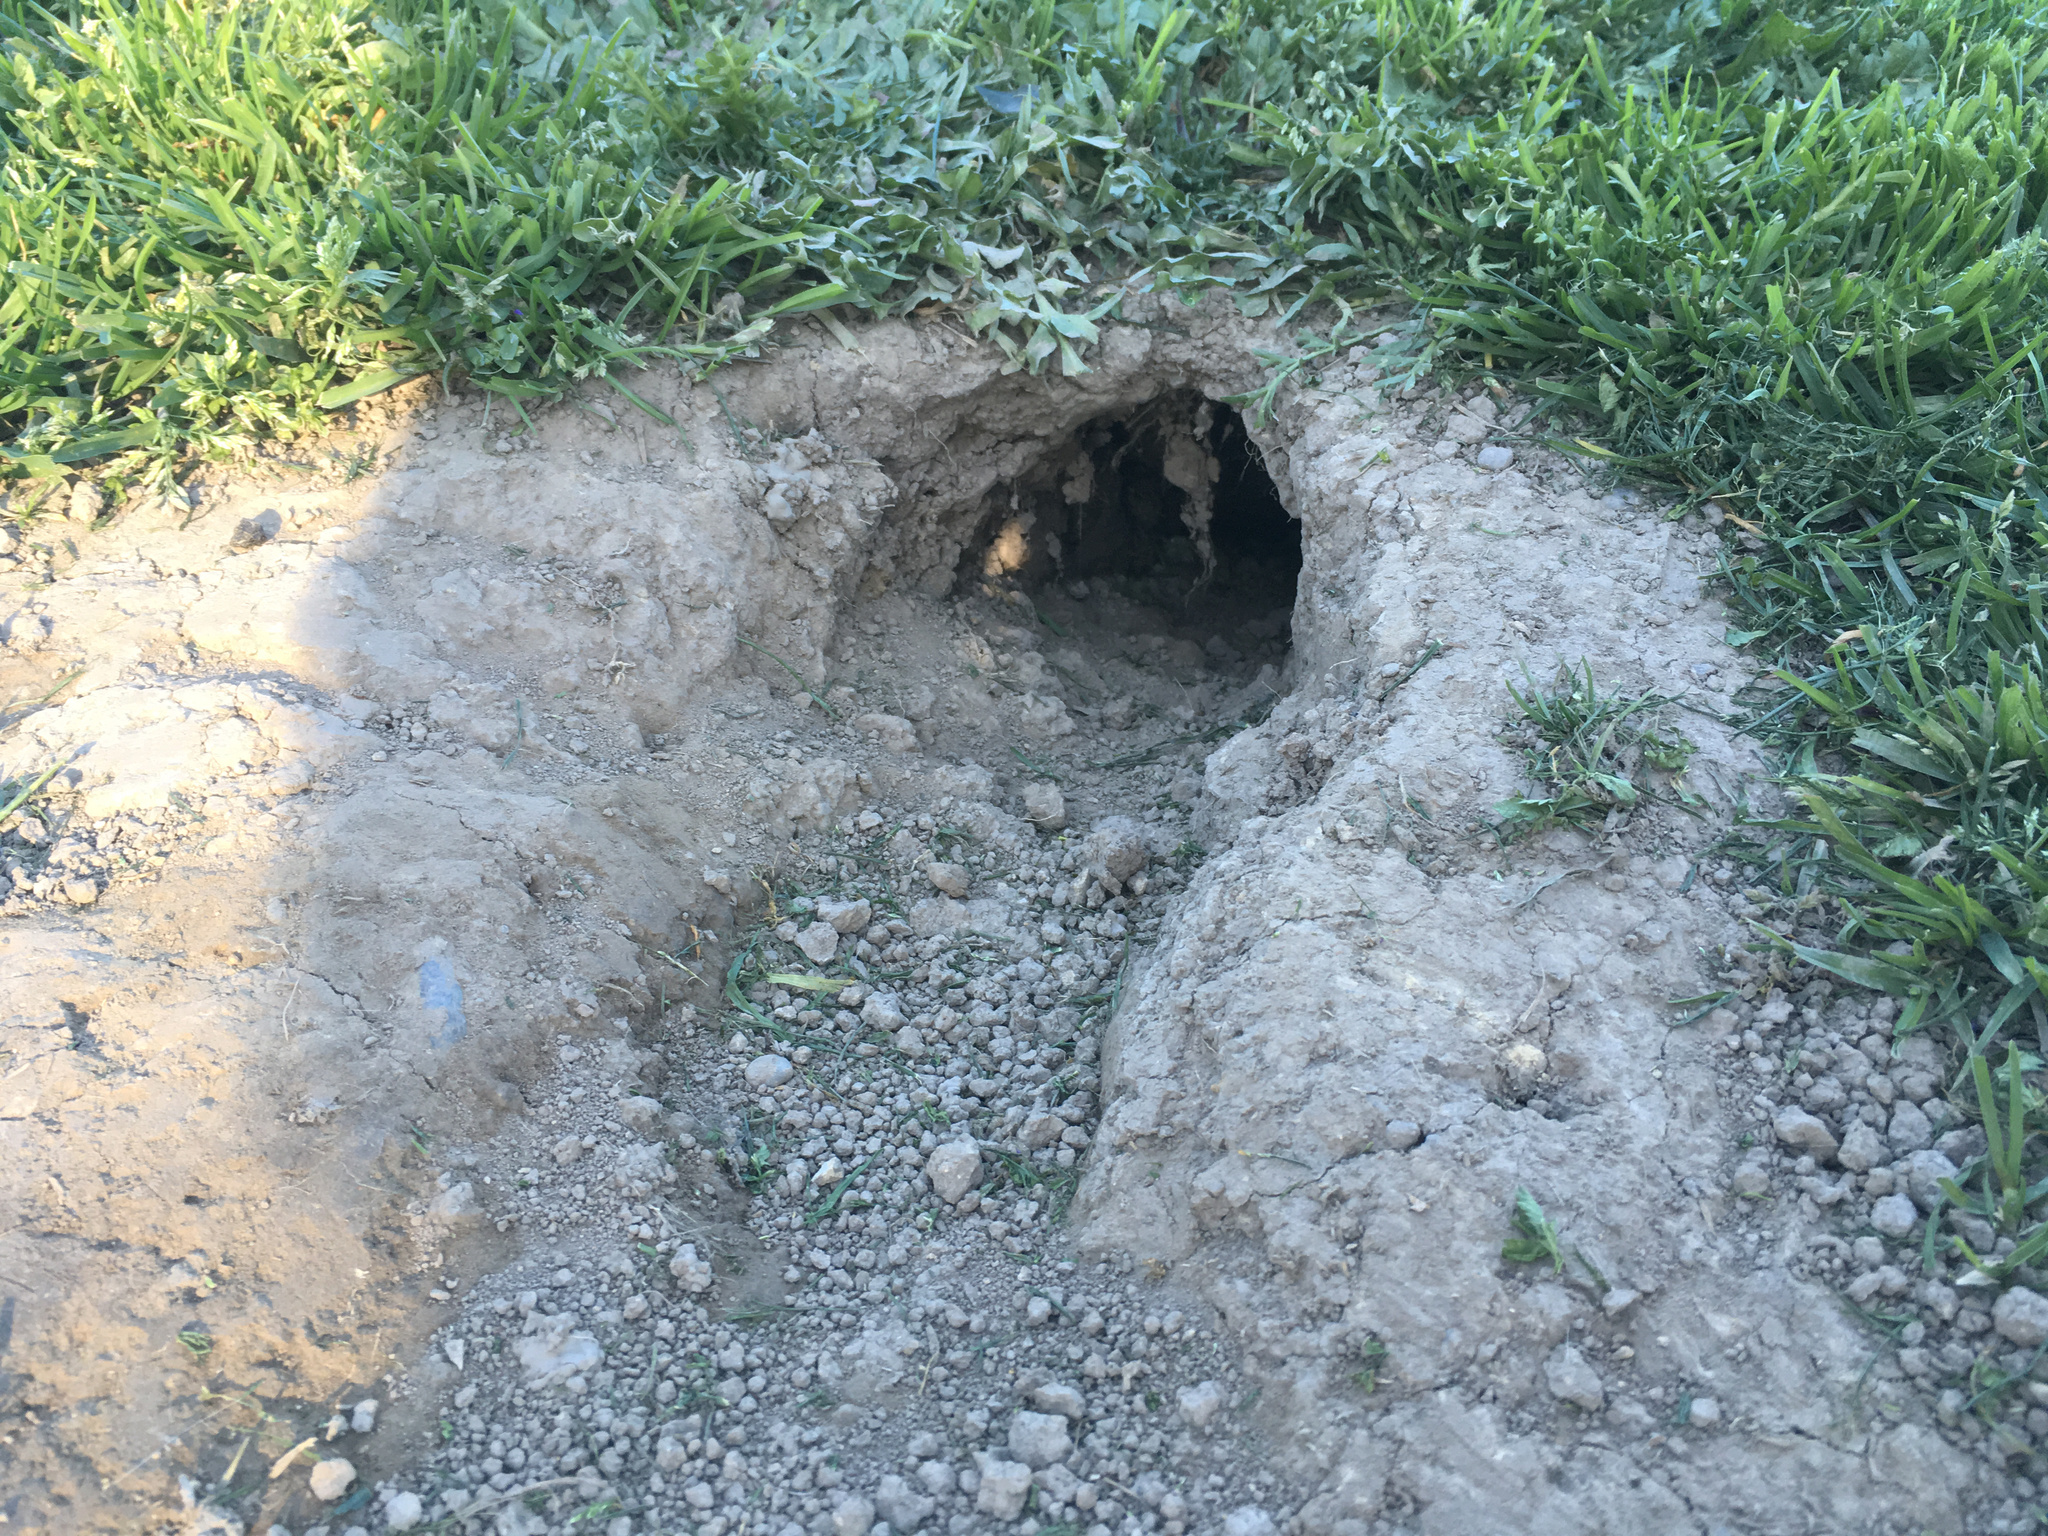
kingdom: Animalia
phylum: Chordata
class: Mammalia
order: Lagomorpha
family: Leporidae
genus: Oryctolagus
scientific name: Oryctolagus cuniculus
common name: European rabbit
